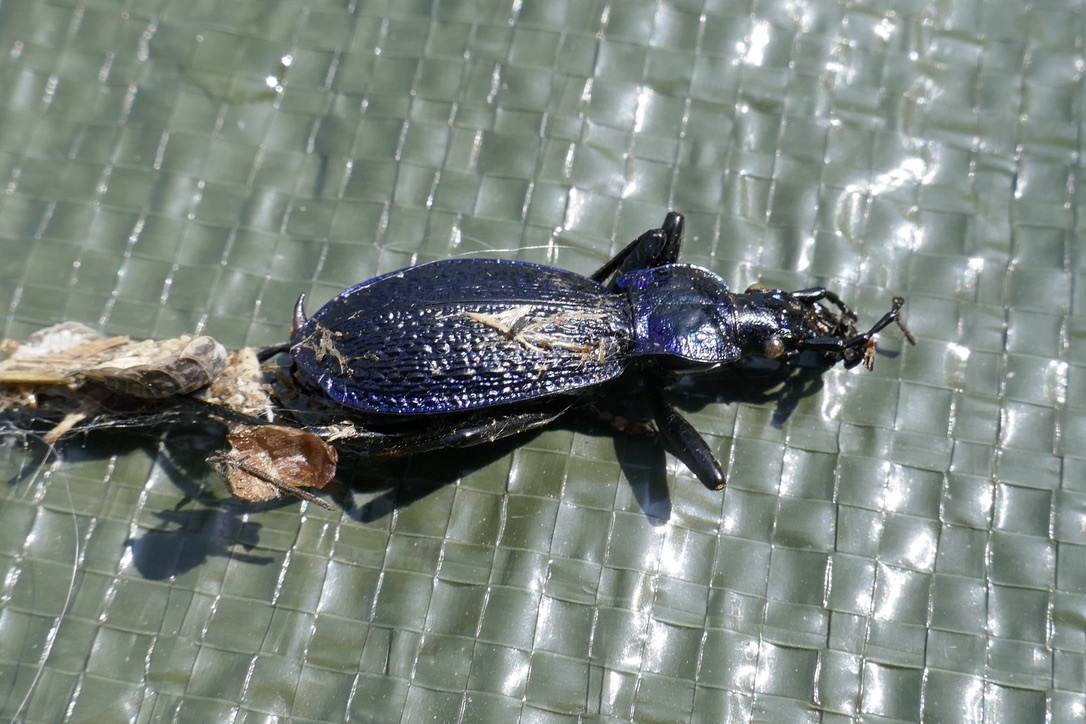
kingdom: Animalia
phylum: Arthropoda
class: Insecta
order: Coleoptera
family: Carabidae
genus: Carabus
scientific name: Carabus intricatus
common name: Blue ground beetle
